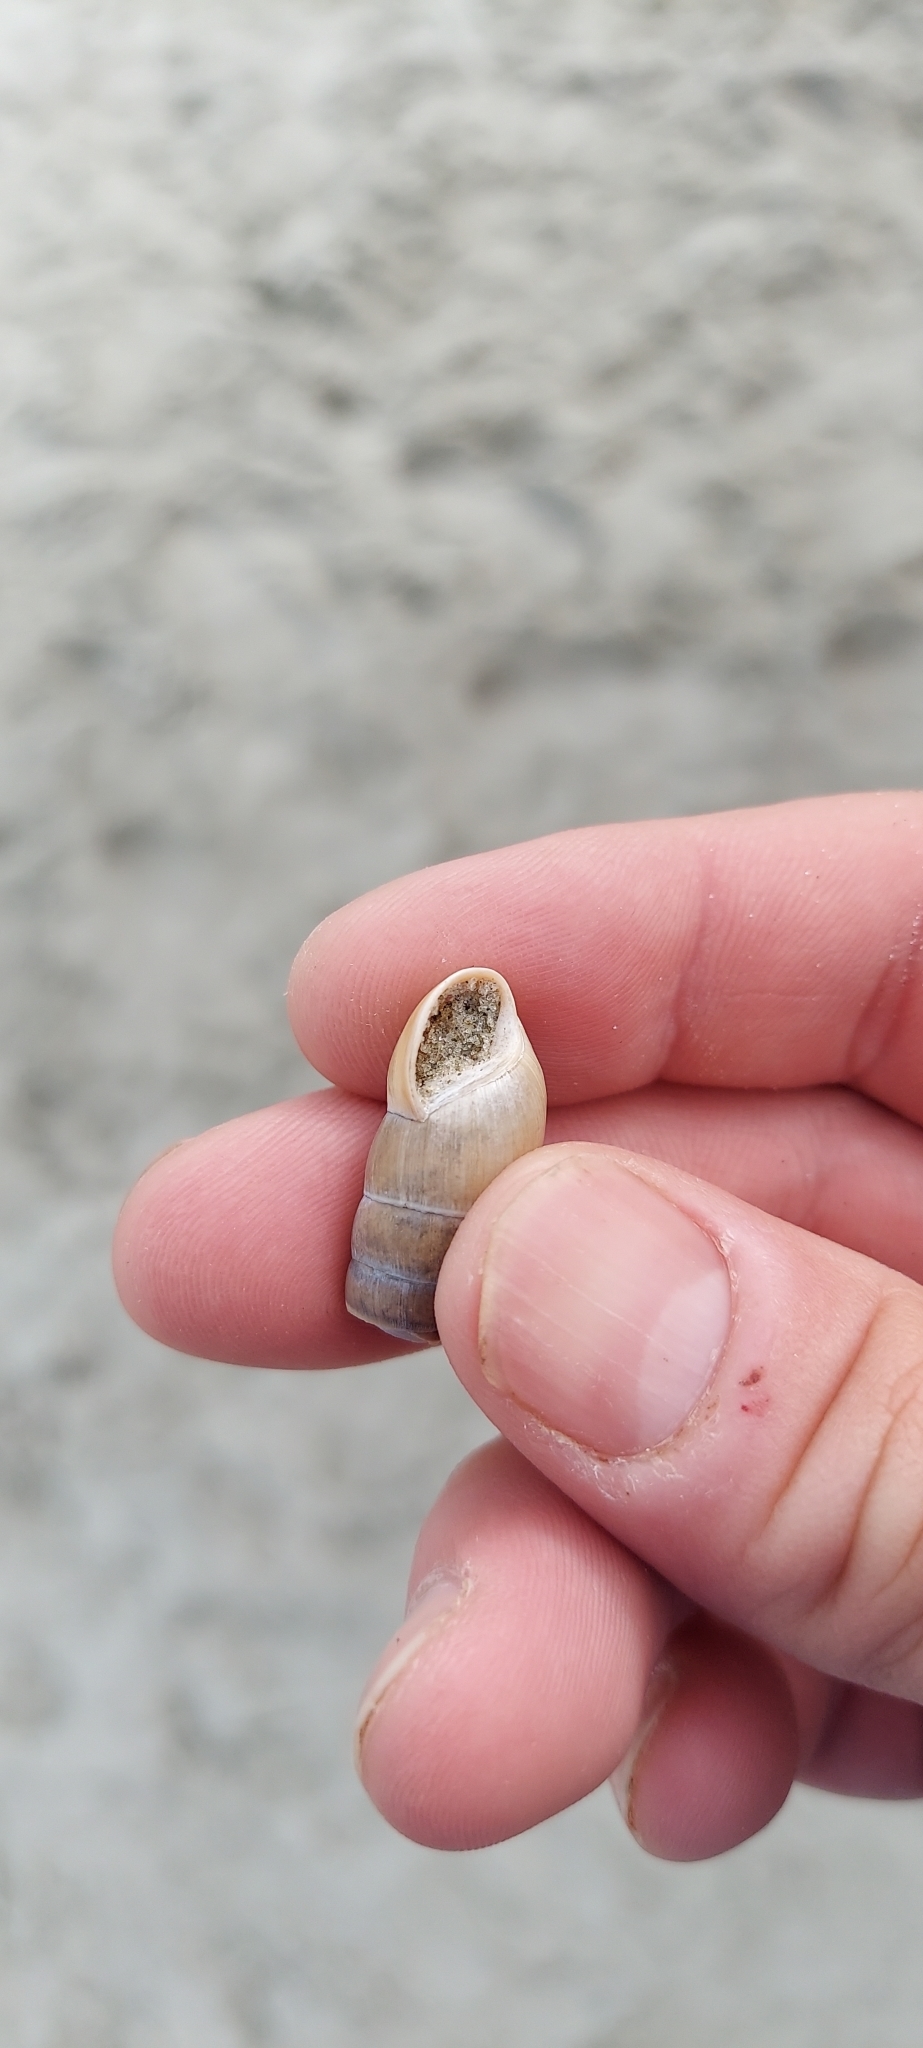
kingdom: Animalia
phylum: Mollusca
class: Gastropoda
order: Stylommatophora
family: Achatinidae
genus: Rumina
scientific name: Rumina decollata
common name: Decollate snail
